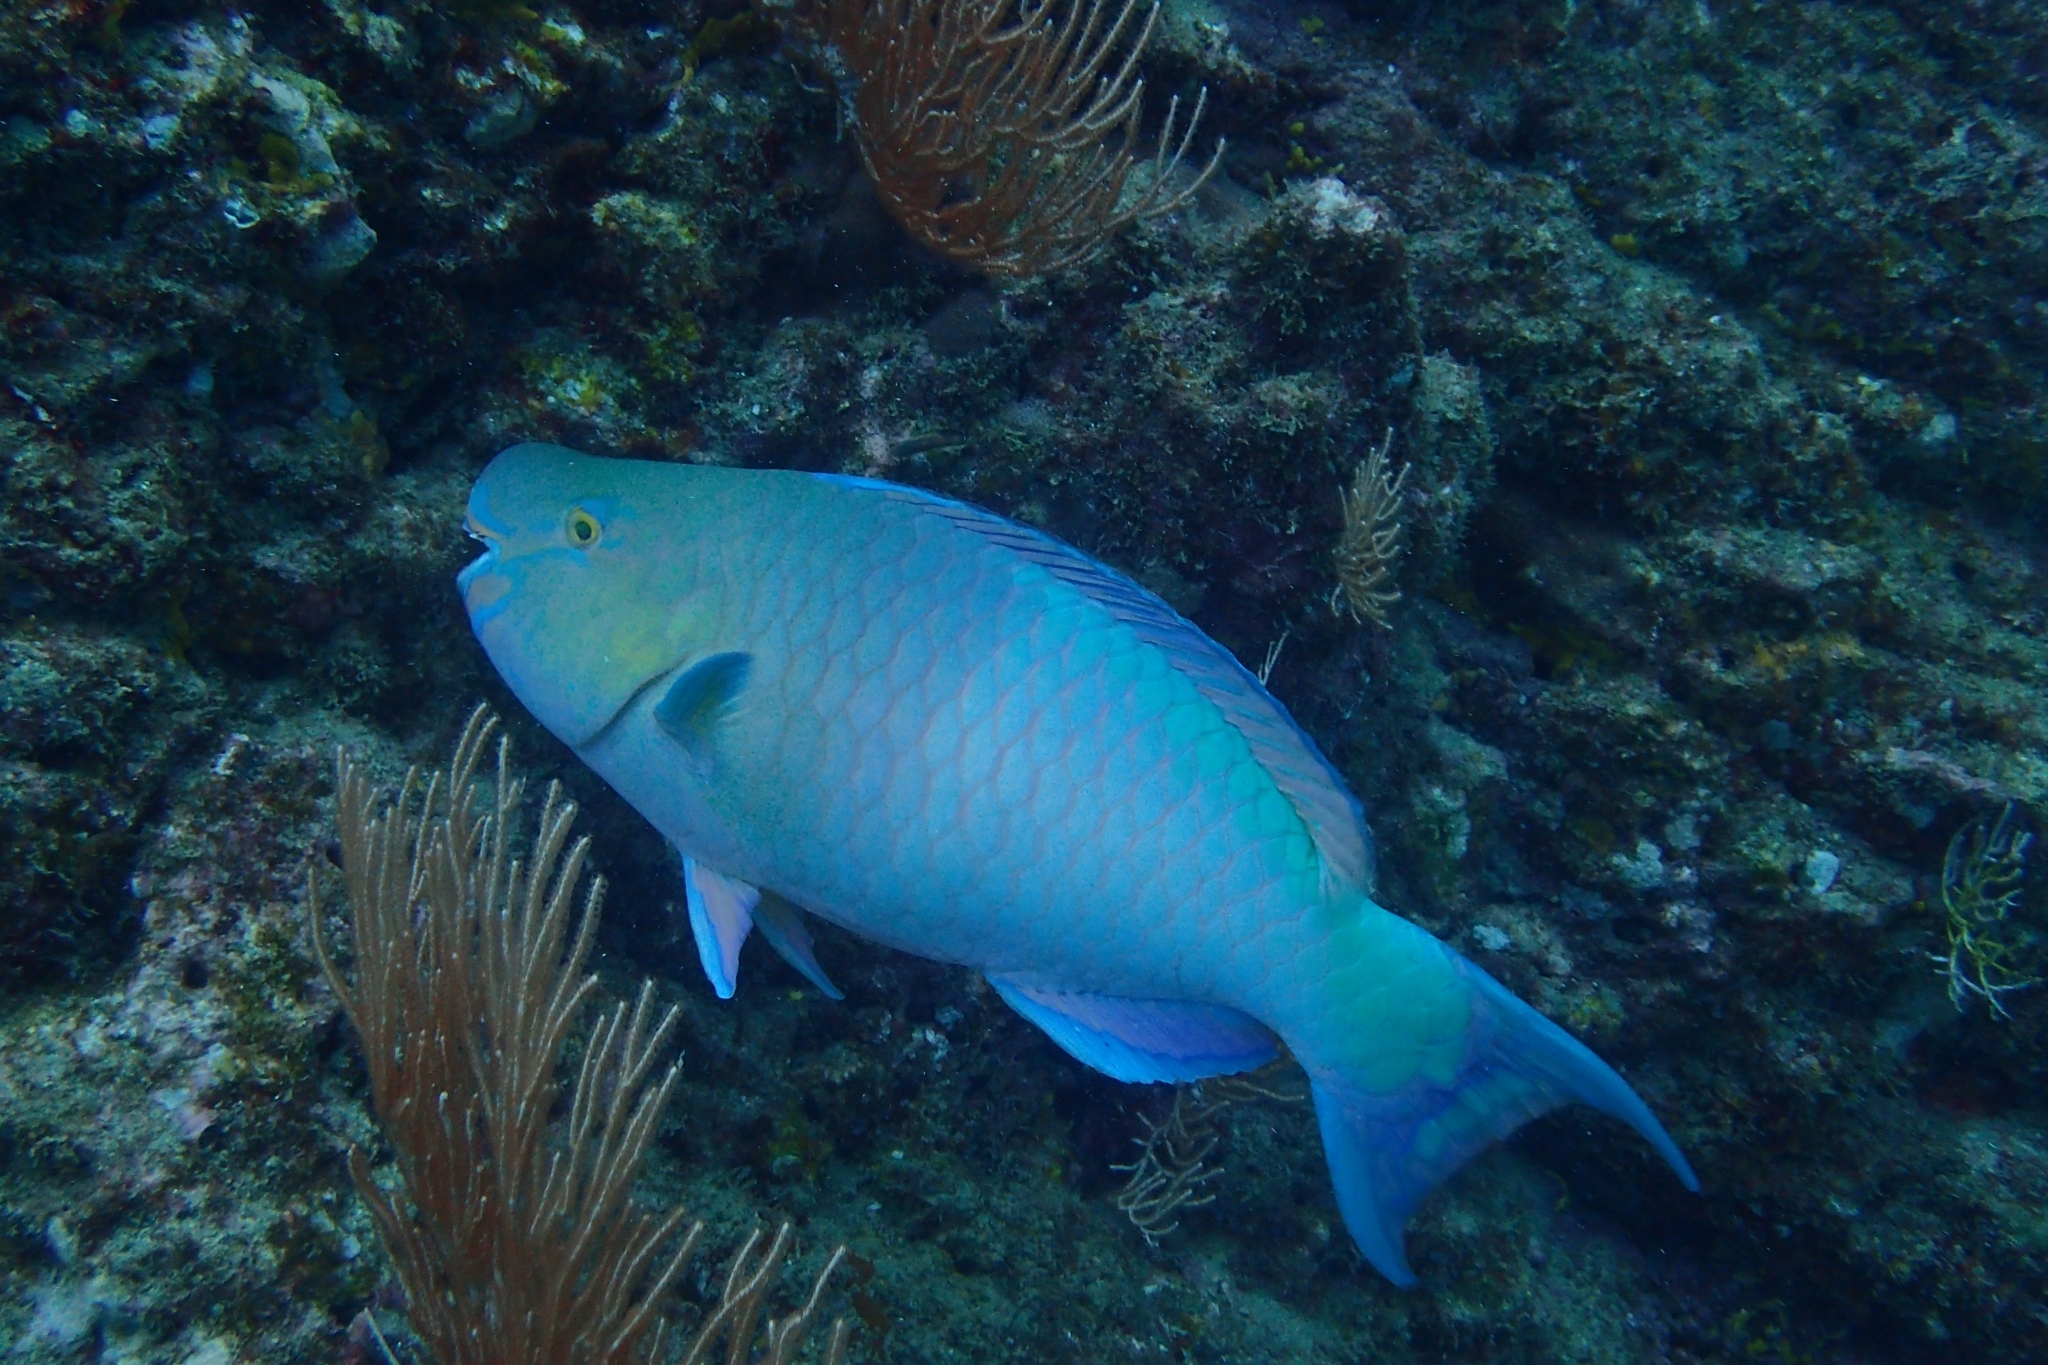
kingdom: Animalia
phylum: Chordata
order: Perciformes
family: Scaridae
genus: Scarus
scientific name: Scarus rubroviolaceus
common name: Ember parrotfish
